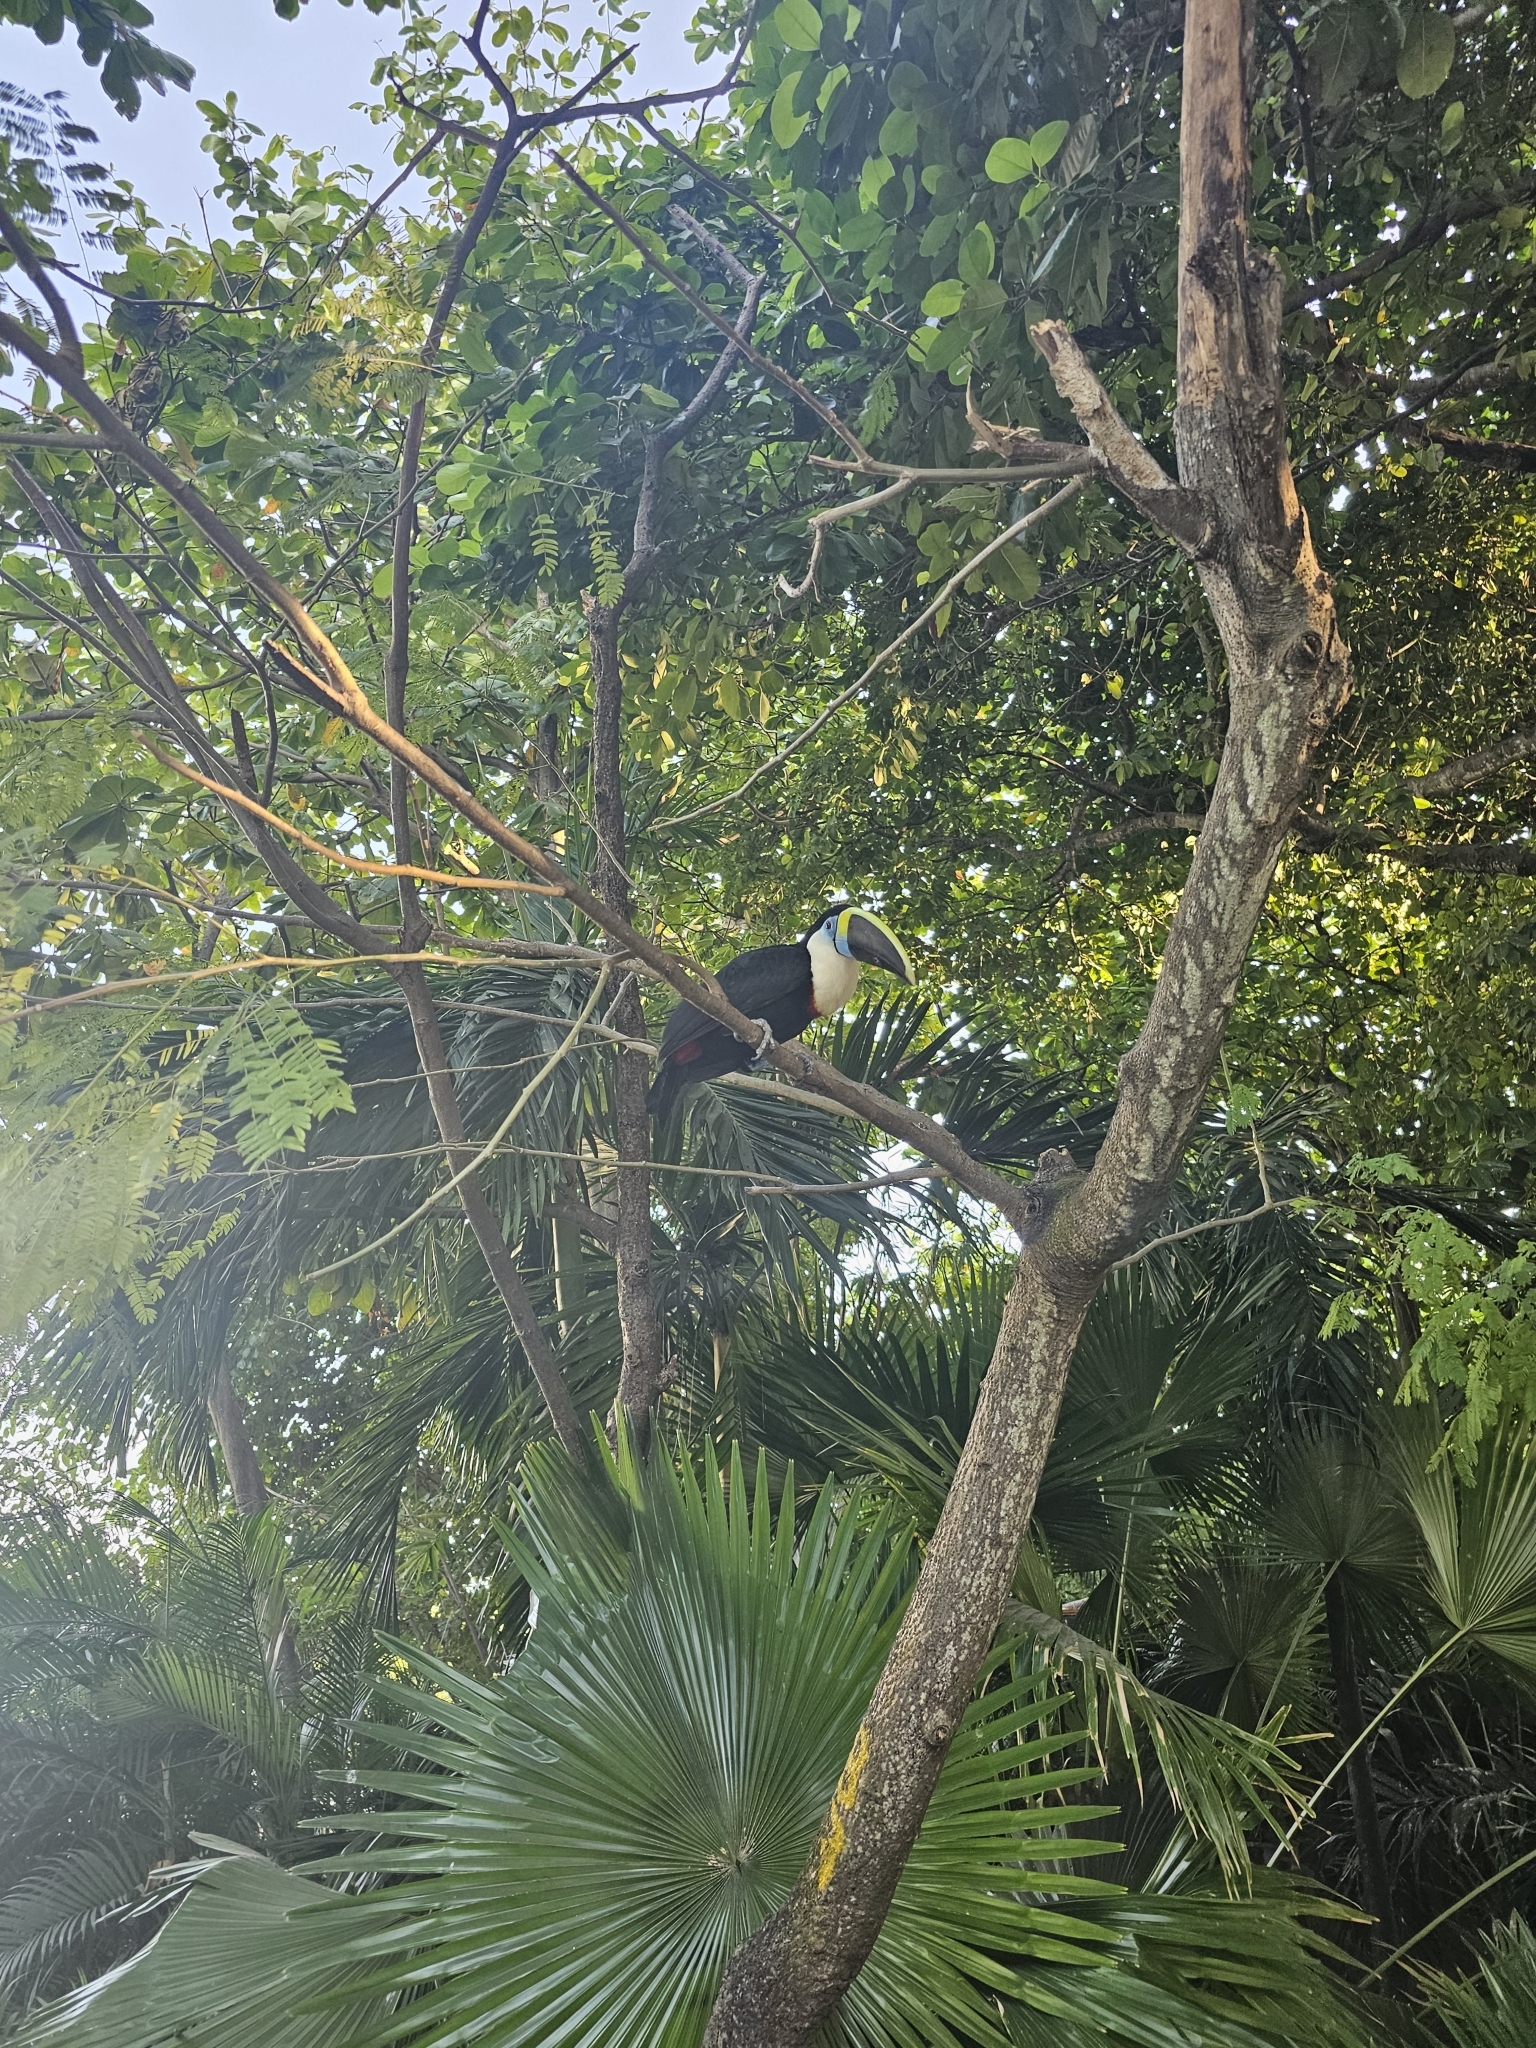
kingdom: Animalia
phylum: Chordata
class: Aves
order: Piciformes
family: Ramphastidae
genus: Ramphastos
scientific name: Ramphastos vitellinus
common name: Channel-billed toucan
